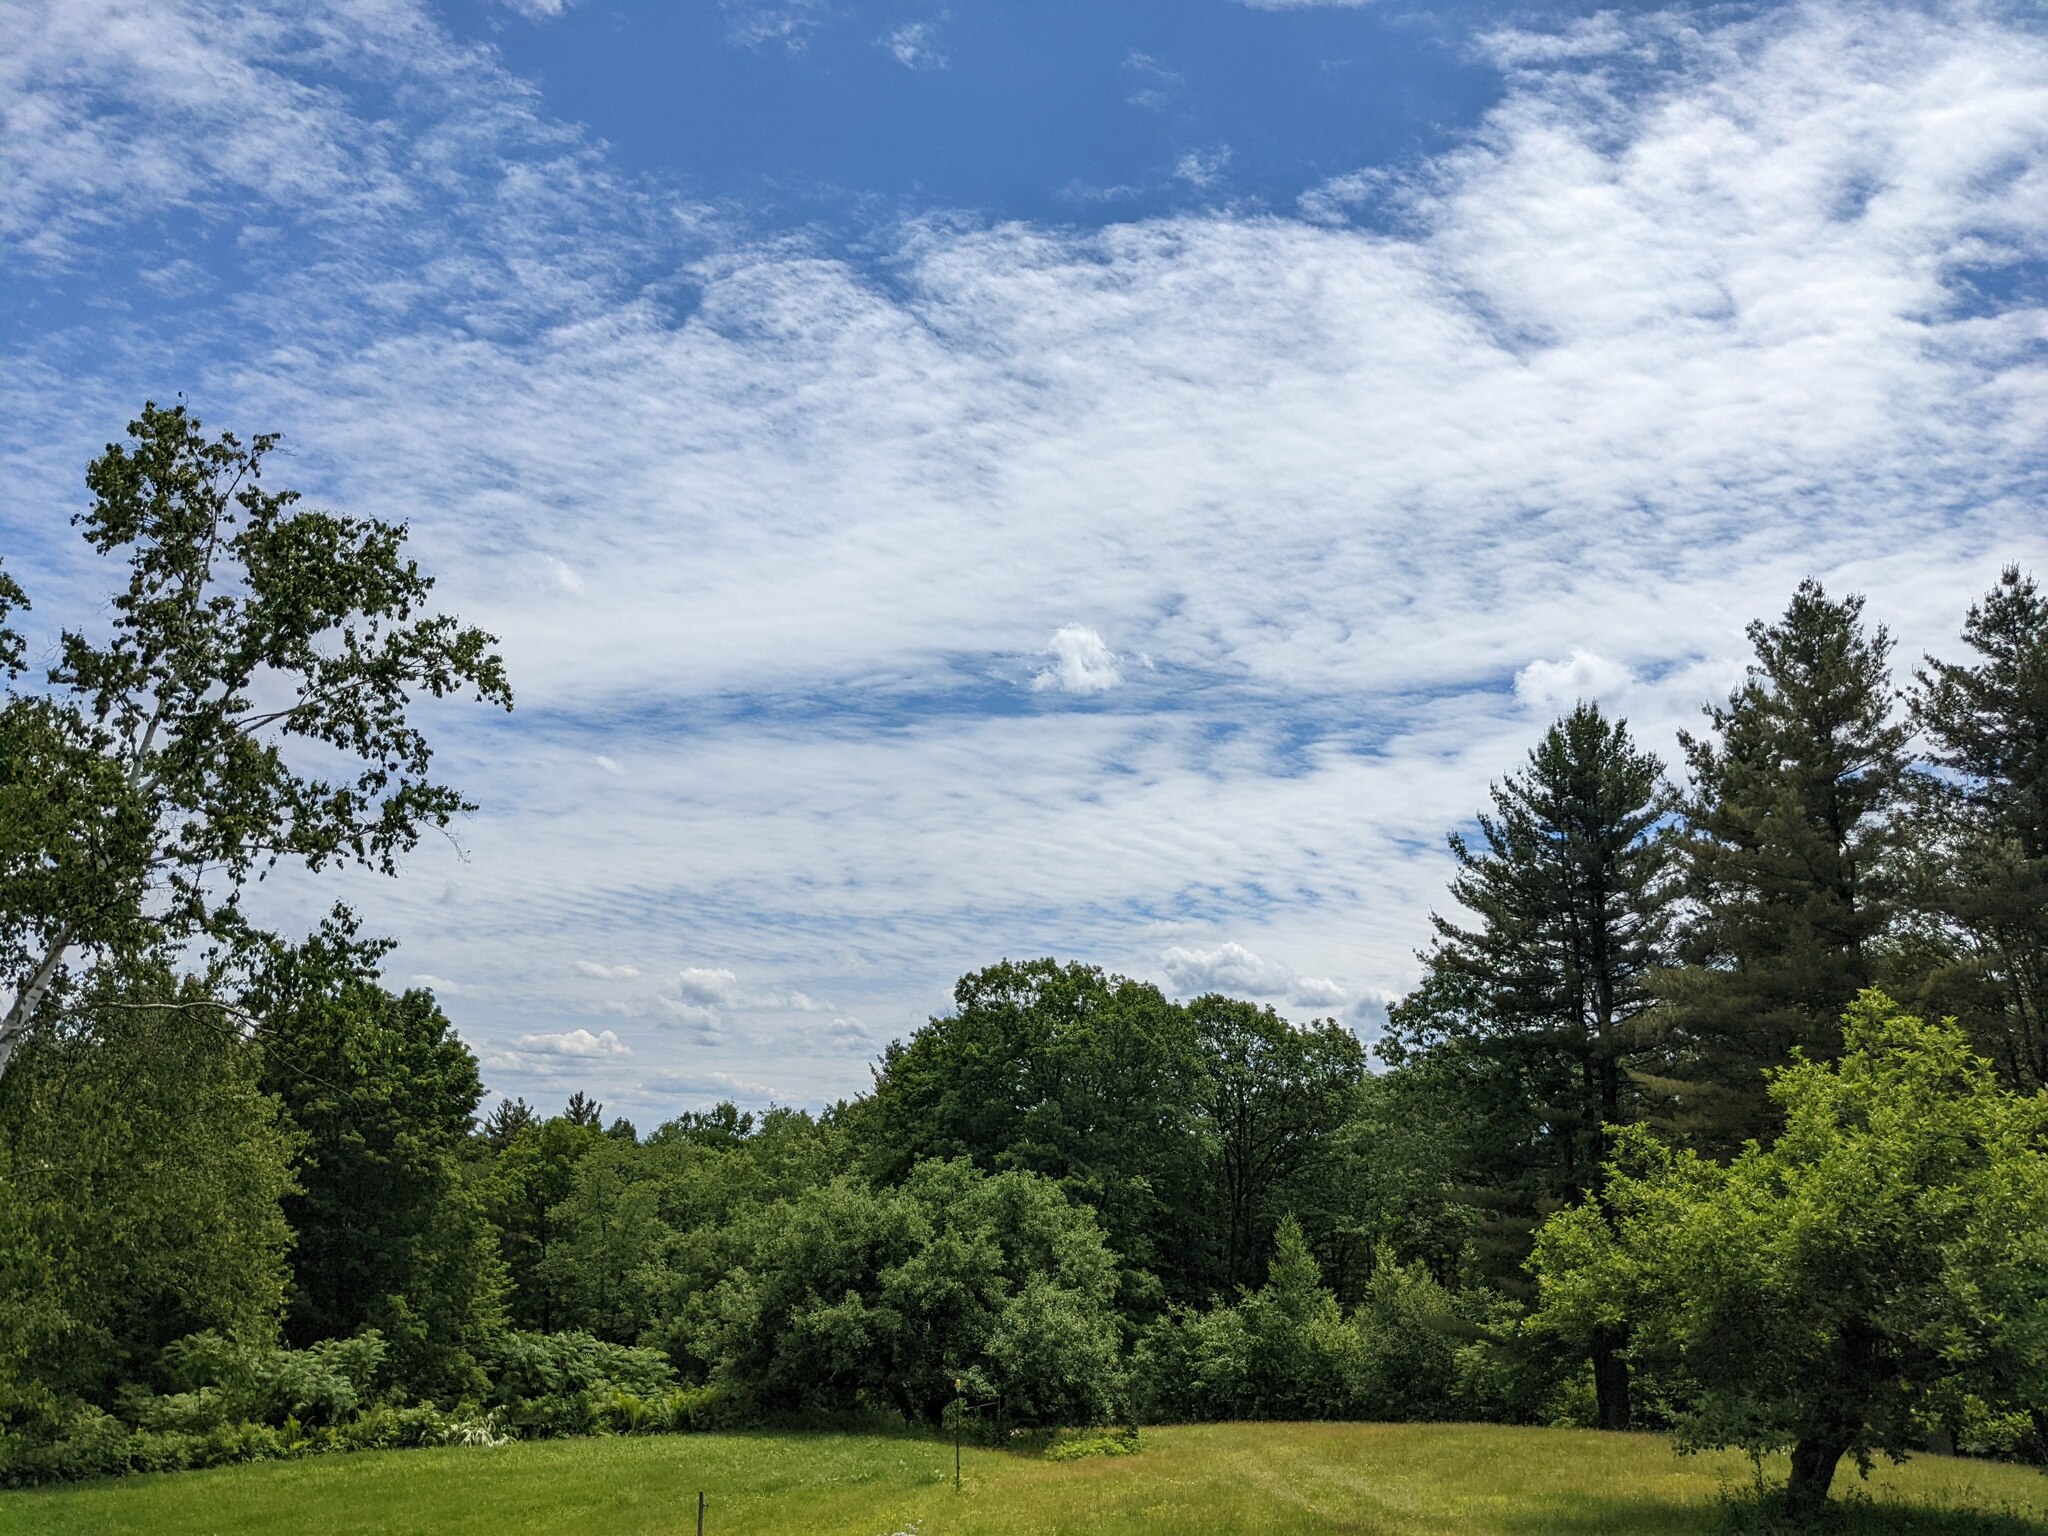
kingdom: Plantae
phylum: Tracheophyta
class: Pinopsida
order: Pinales
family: Pinaceae
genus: Pinus
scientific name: Pinus strobus
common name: Weymouth pine
